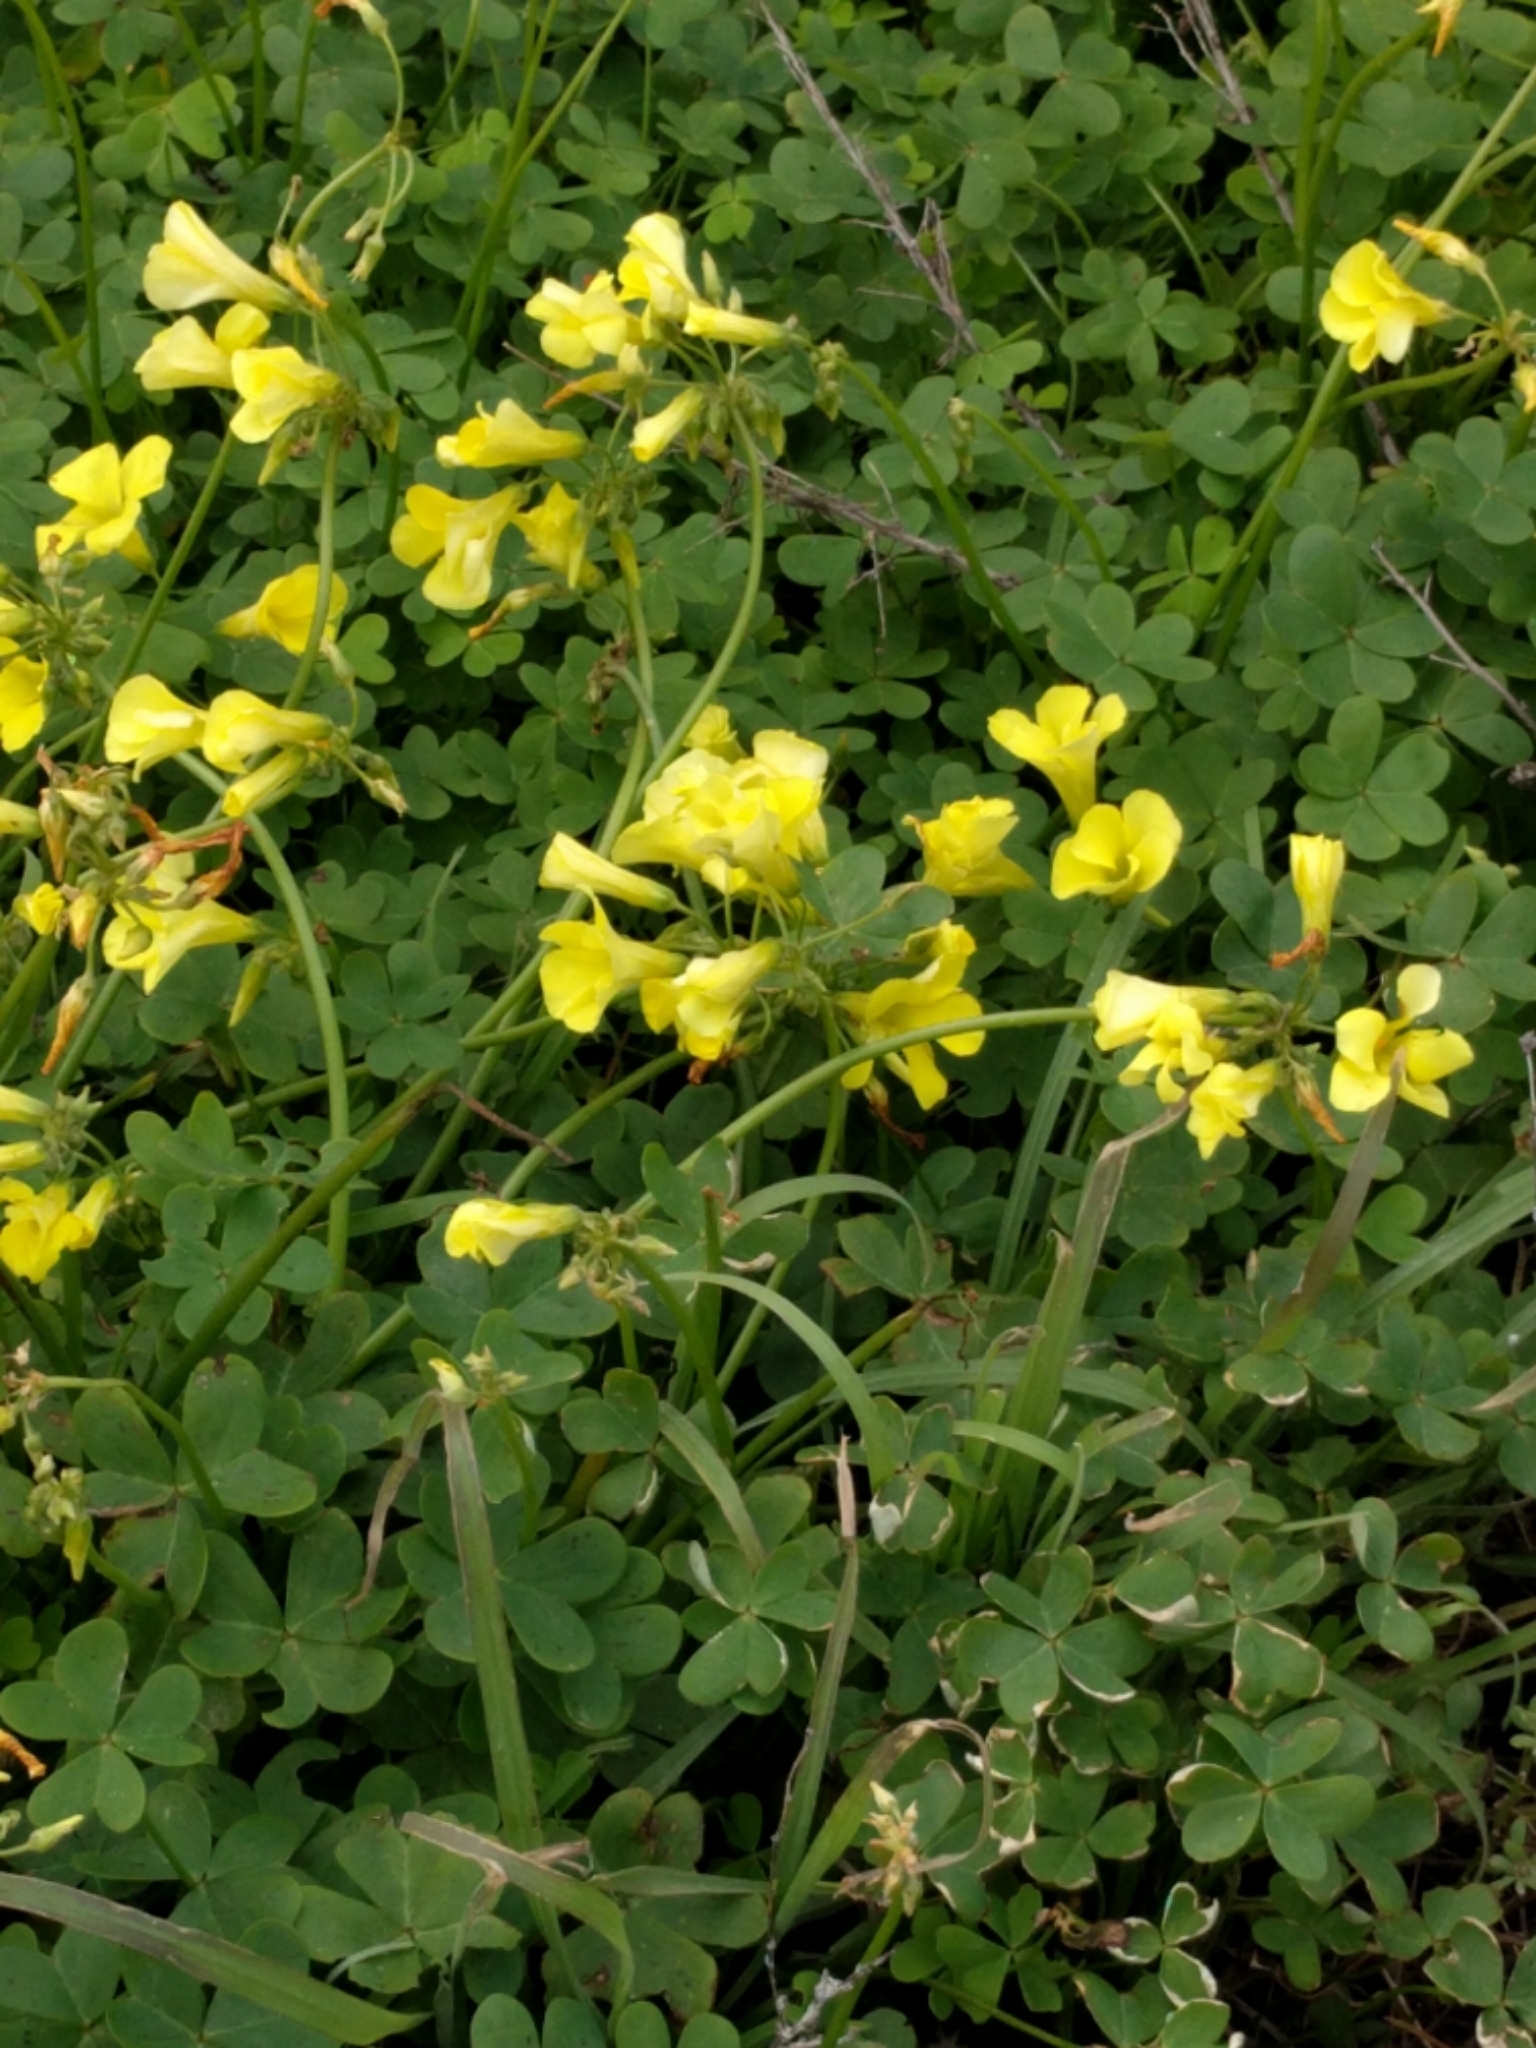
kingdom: Plantae
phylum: Tracheophyta
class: Magnoliopsida
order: Oxalidales
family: Oxalidaceae
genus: Oxalis
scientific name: Oxalis pes-caprae
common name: Bermuda-buttercup
